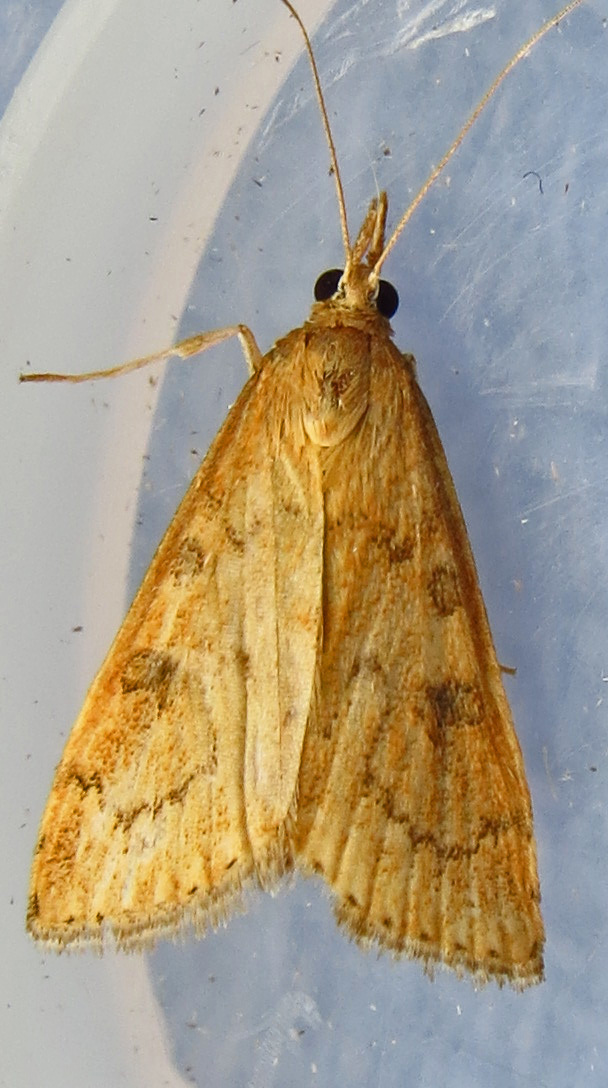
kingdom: Animalia
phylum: Arthropoda
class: Insecta
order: Lepidoptera
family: Crambidae
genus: Udea
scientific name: Udea rubigalis
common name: Celery leaftier moth
